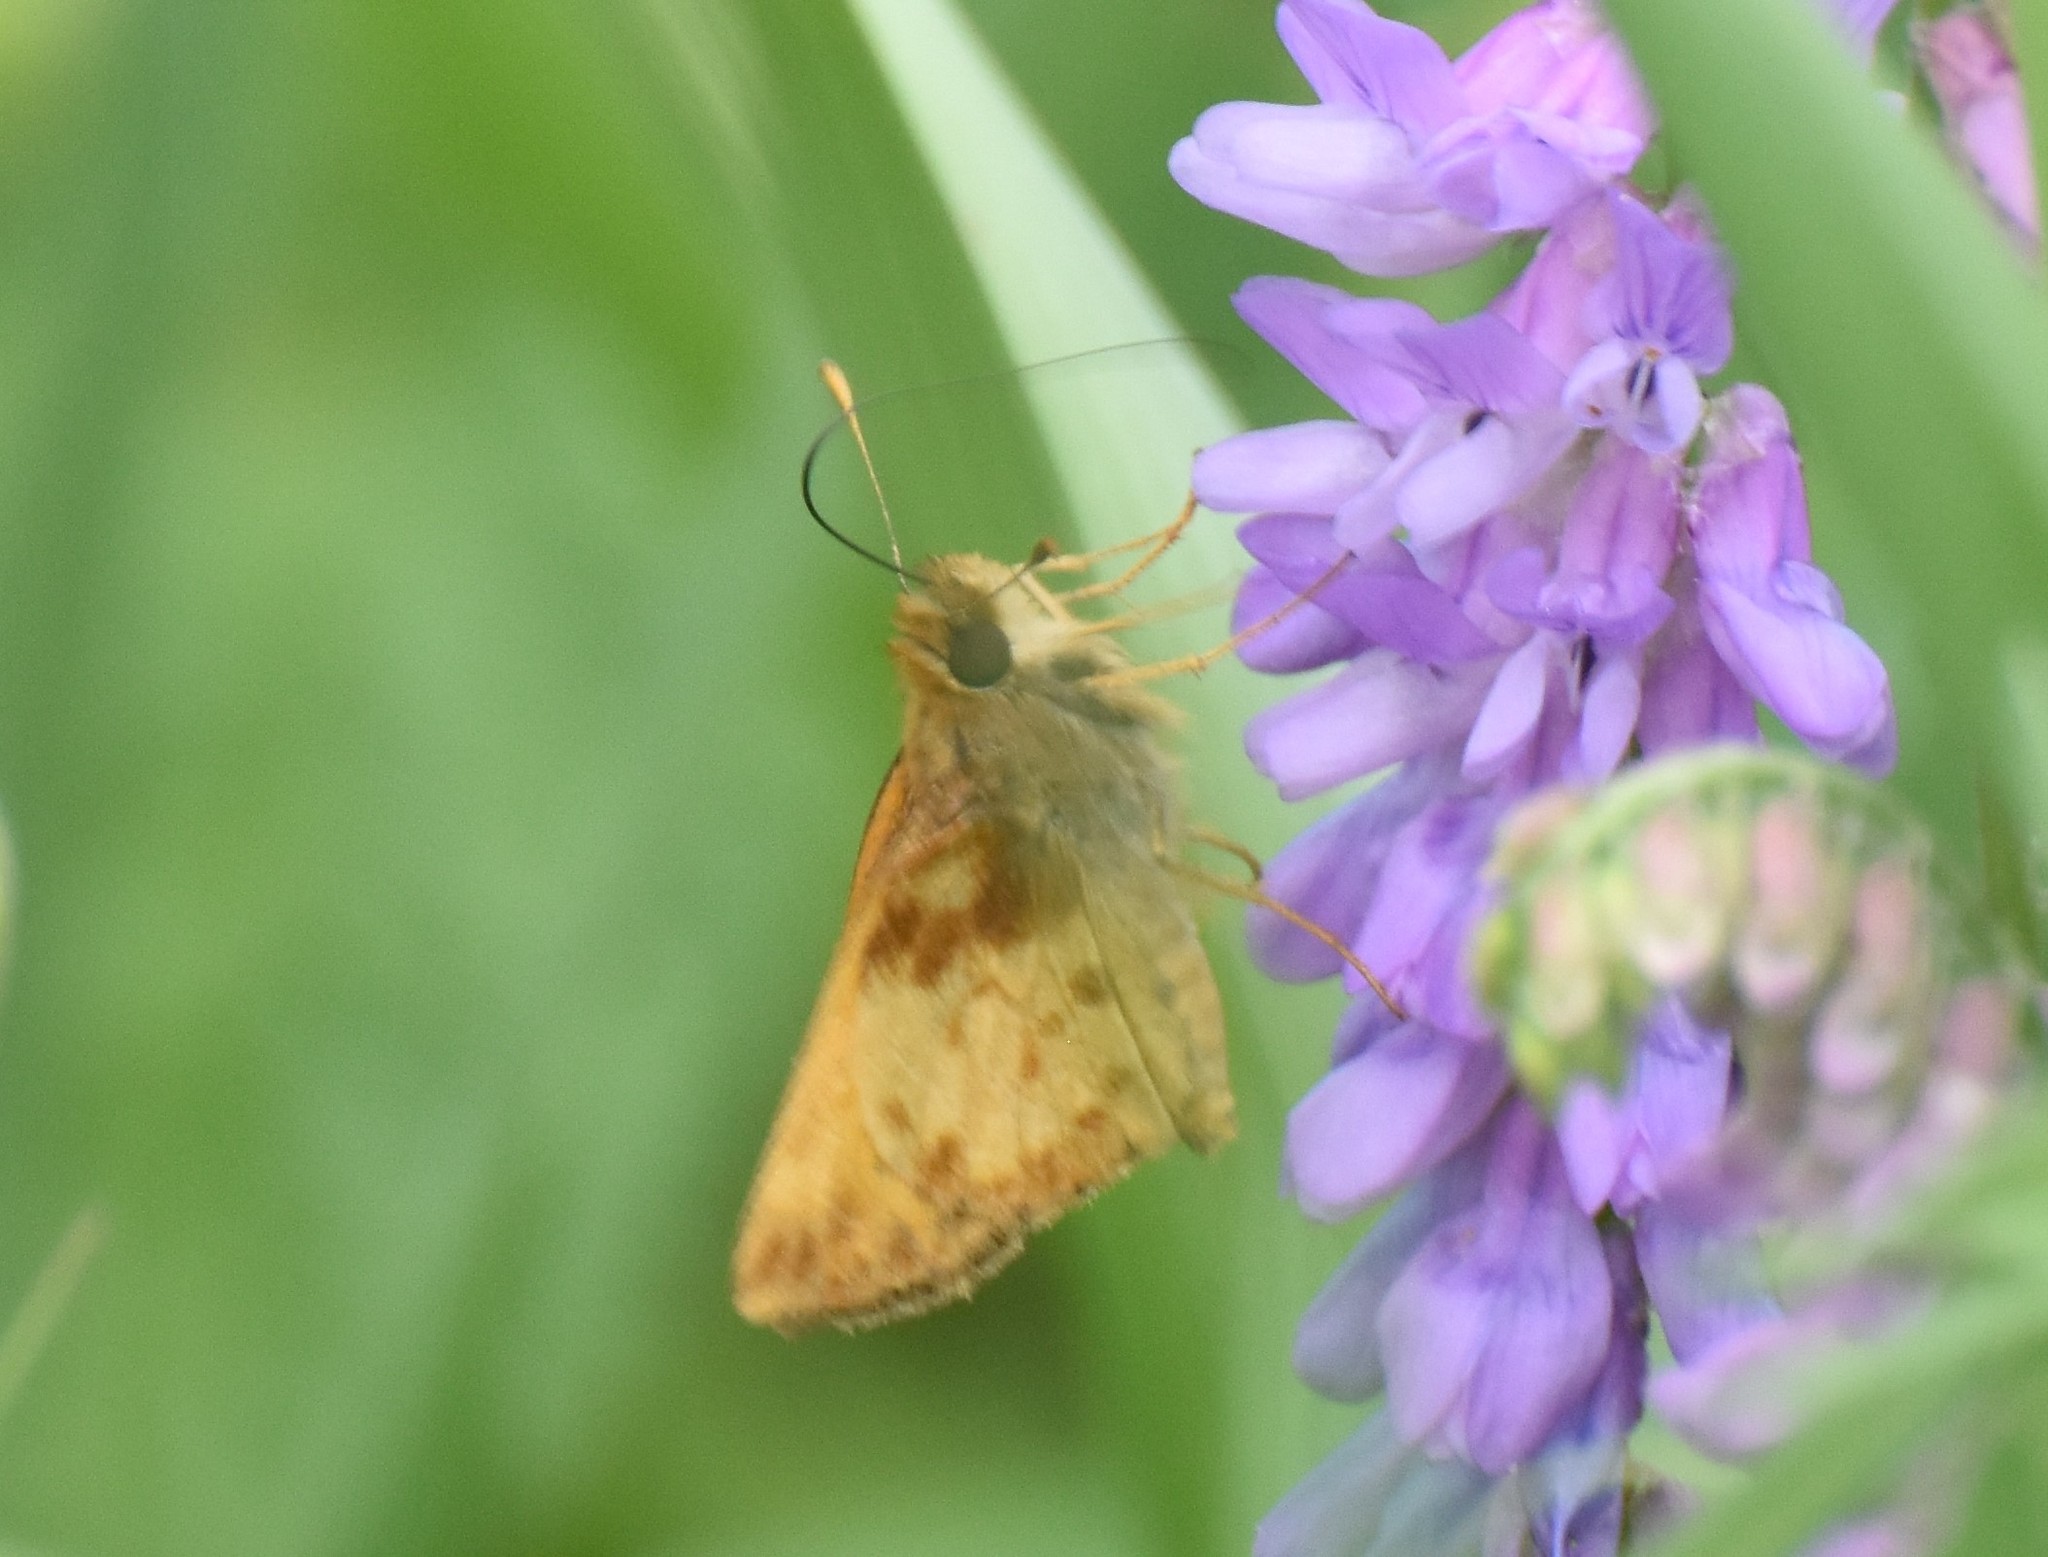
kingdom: Animalia
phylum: Arthropoda
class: Insecta
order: Lepidoptera
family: Hesperiidae
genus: Lon
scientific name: Lon zabulon
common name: Zabulon skipper
